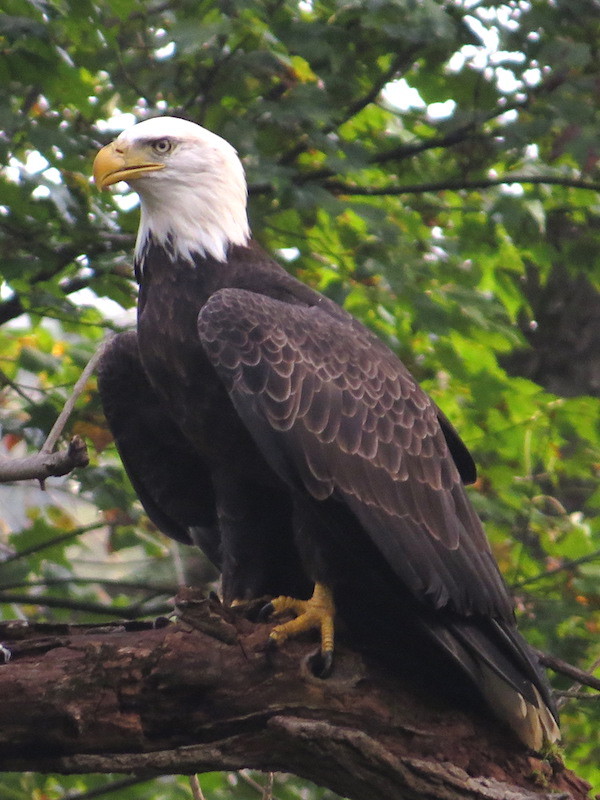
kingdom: Animalia
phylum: Chordata
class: Aves
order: Accipitriformes
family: Accipitridae
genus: Haliaeetus
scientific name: Haliaeetus leucocephalus
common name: Bald eagle
